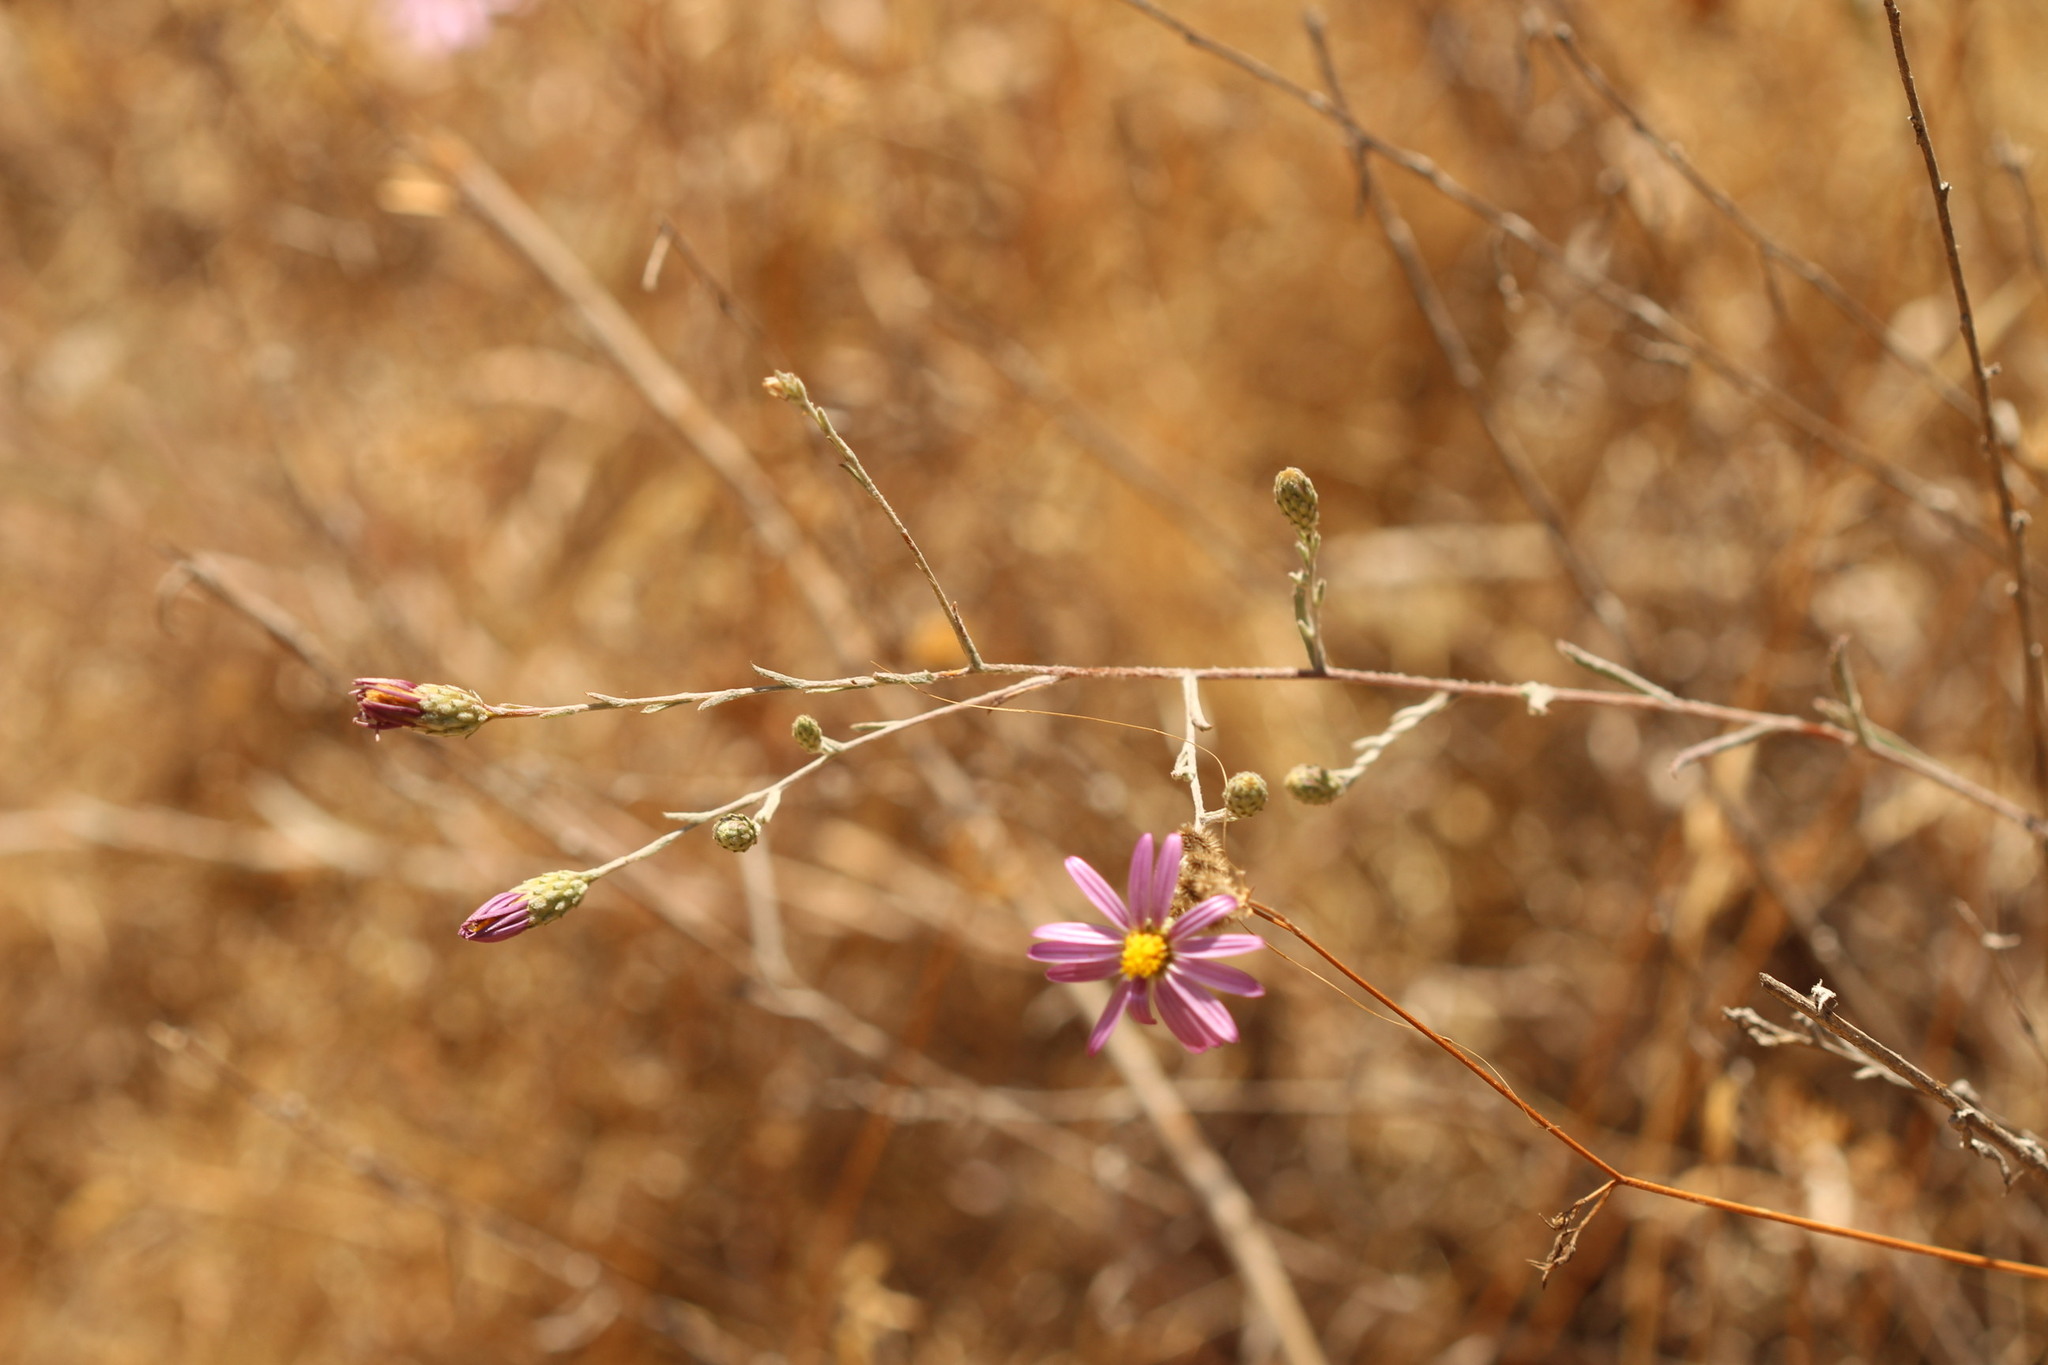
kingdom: Plantae
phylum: Tracheophyta
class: Magnoliopsida
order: Asterales
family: Asteraceae
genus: Corethrogyne
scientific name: Corethrogyne filaginifolia
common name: Sand-aster
